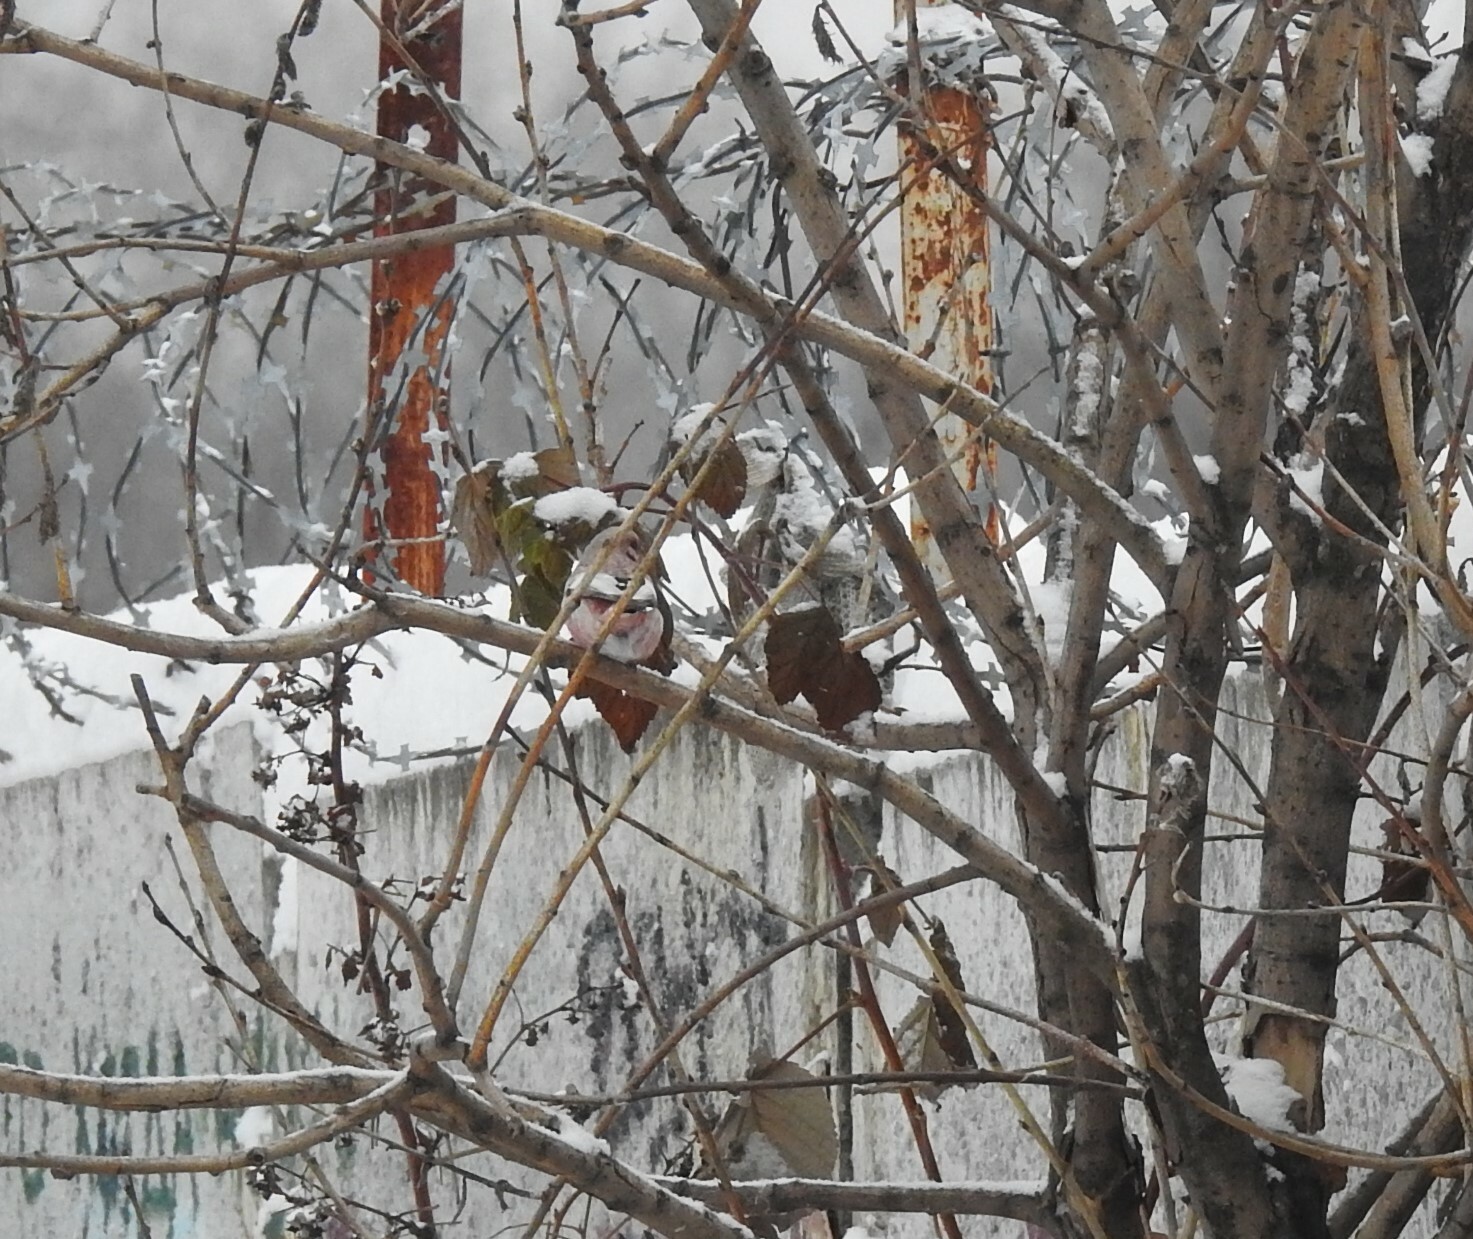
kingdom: Animalia
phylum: Chordata
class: Aves
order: Passeriformes
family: Fringillidae
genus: Carpodacus
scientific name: Carpodacus sibiricus
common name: Long-tailed rosefinch
